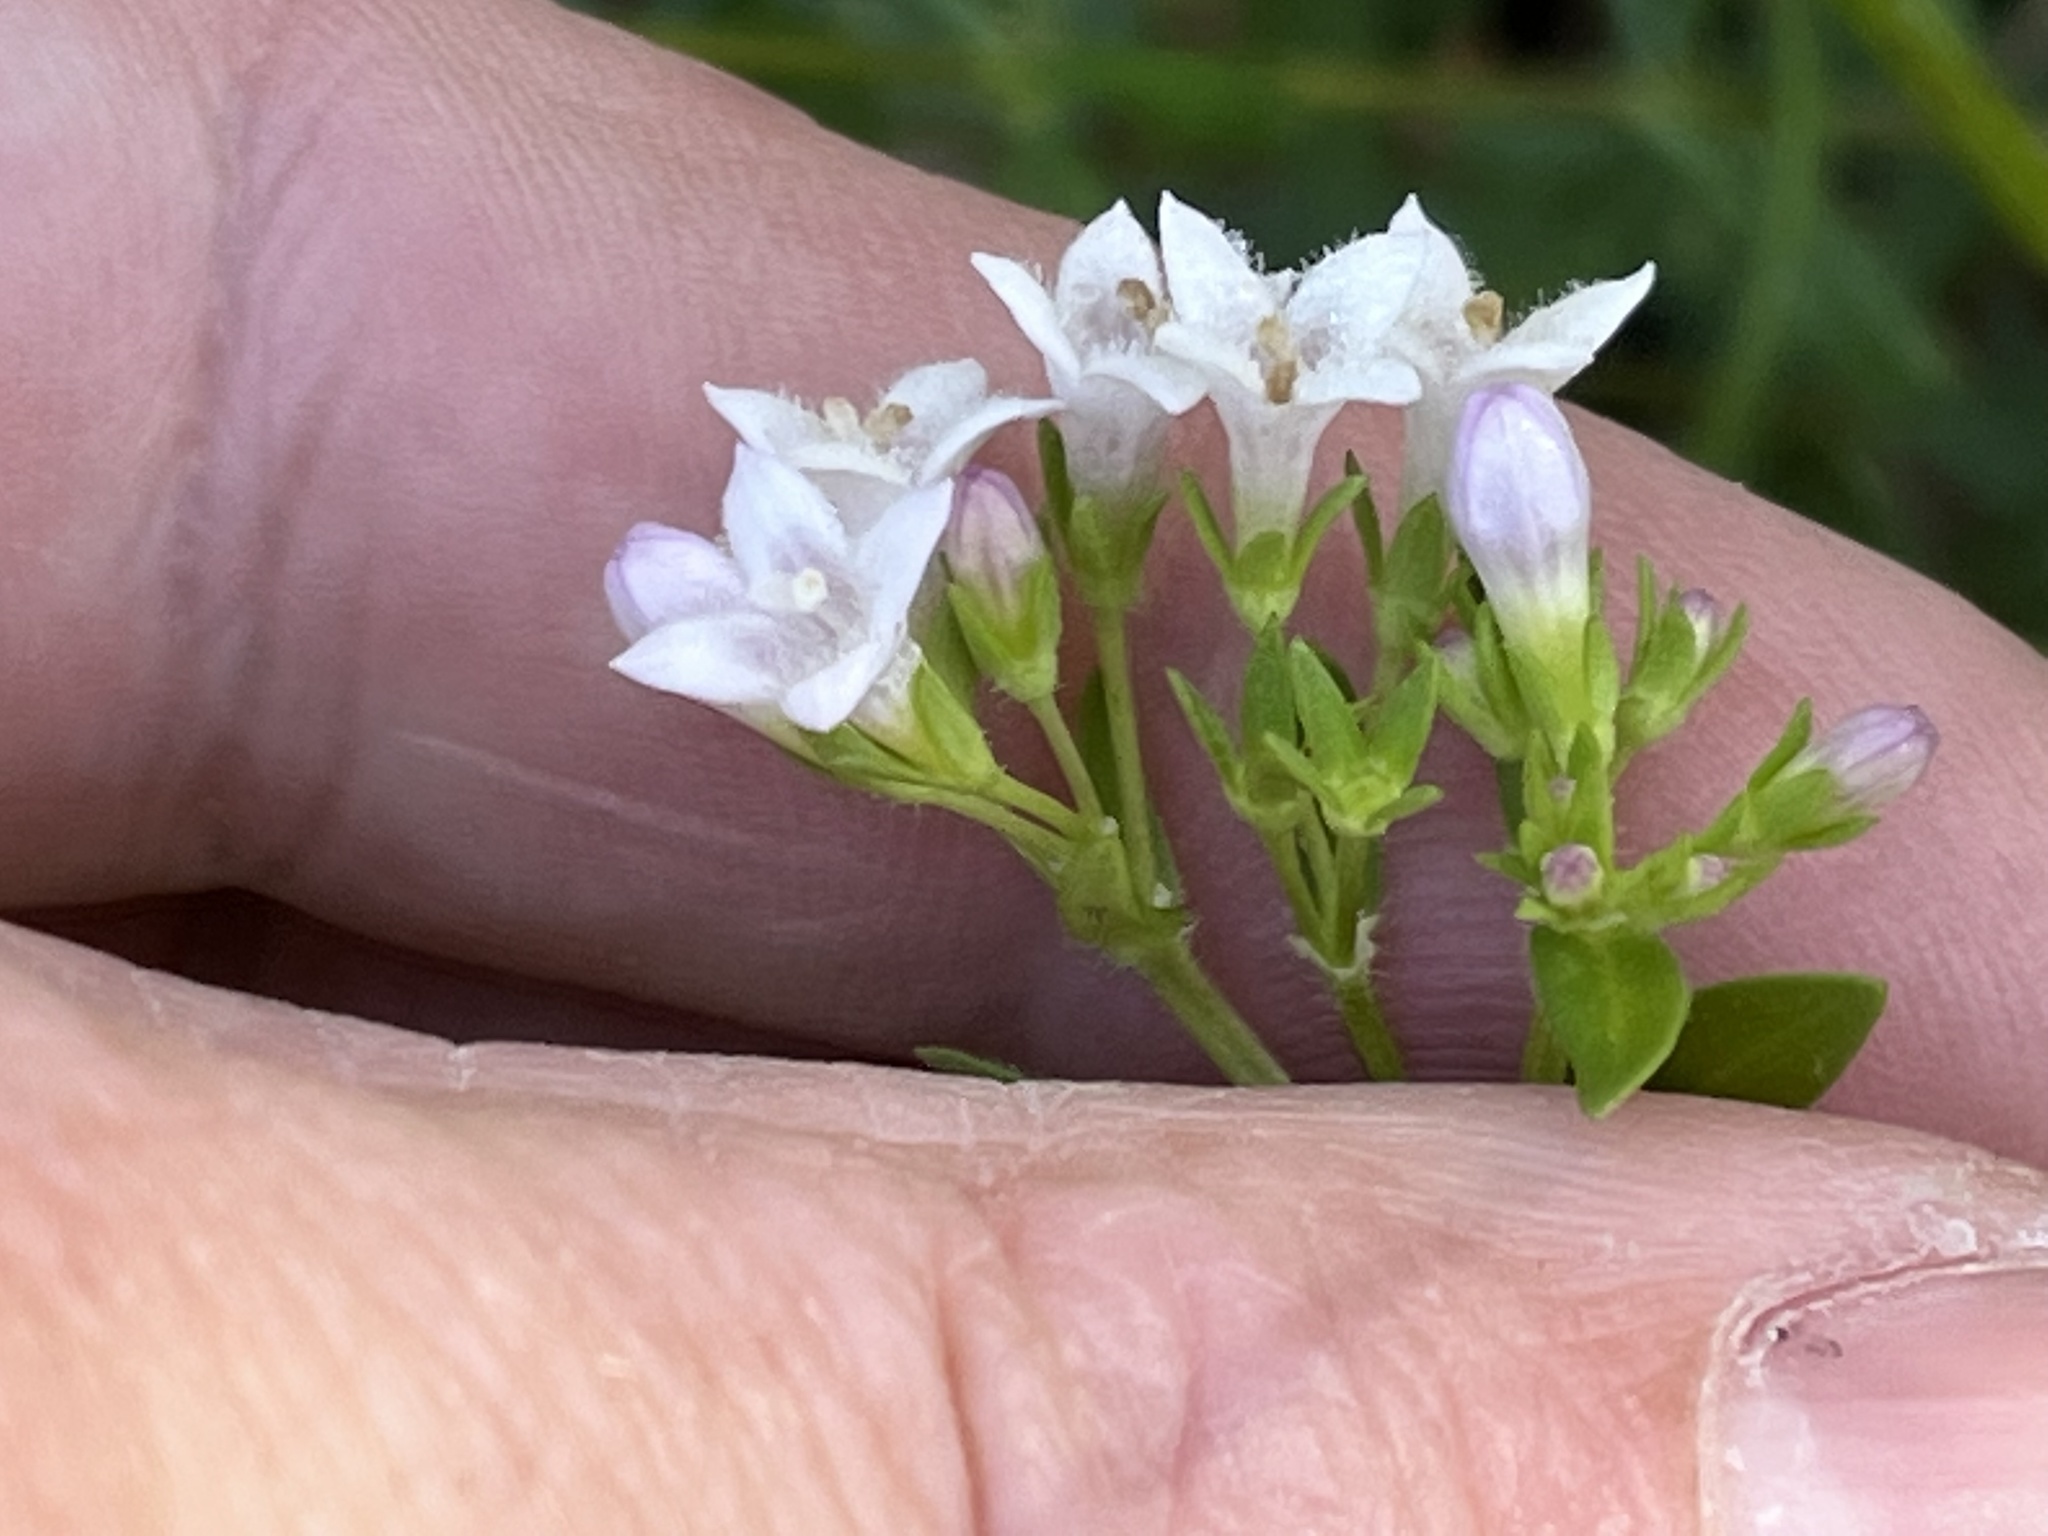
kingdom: Plantae
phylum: Tracheophyta
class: Magnoliopsida
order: Gentianales
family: Rubiaceae
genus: Houstonia
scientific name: Houstonia purpurea
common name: Summer bluet
